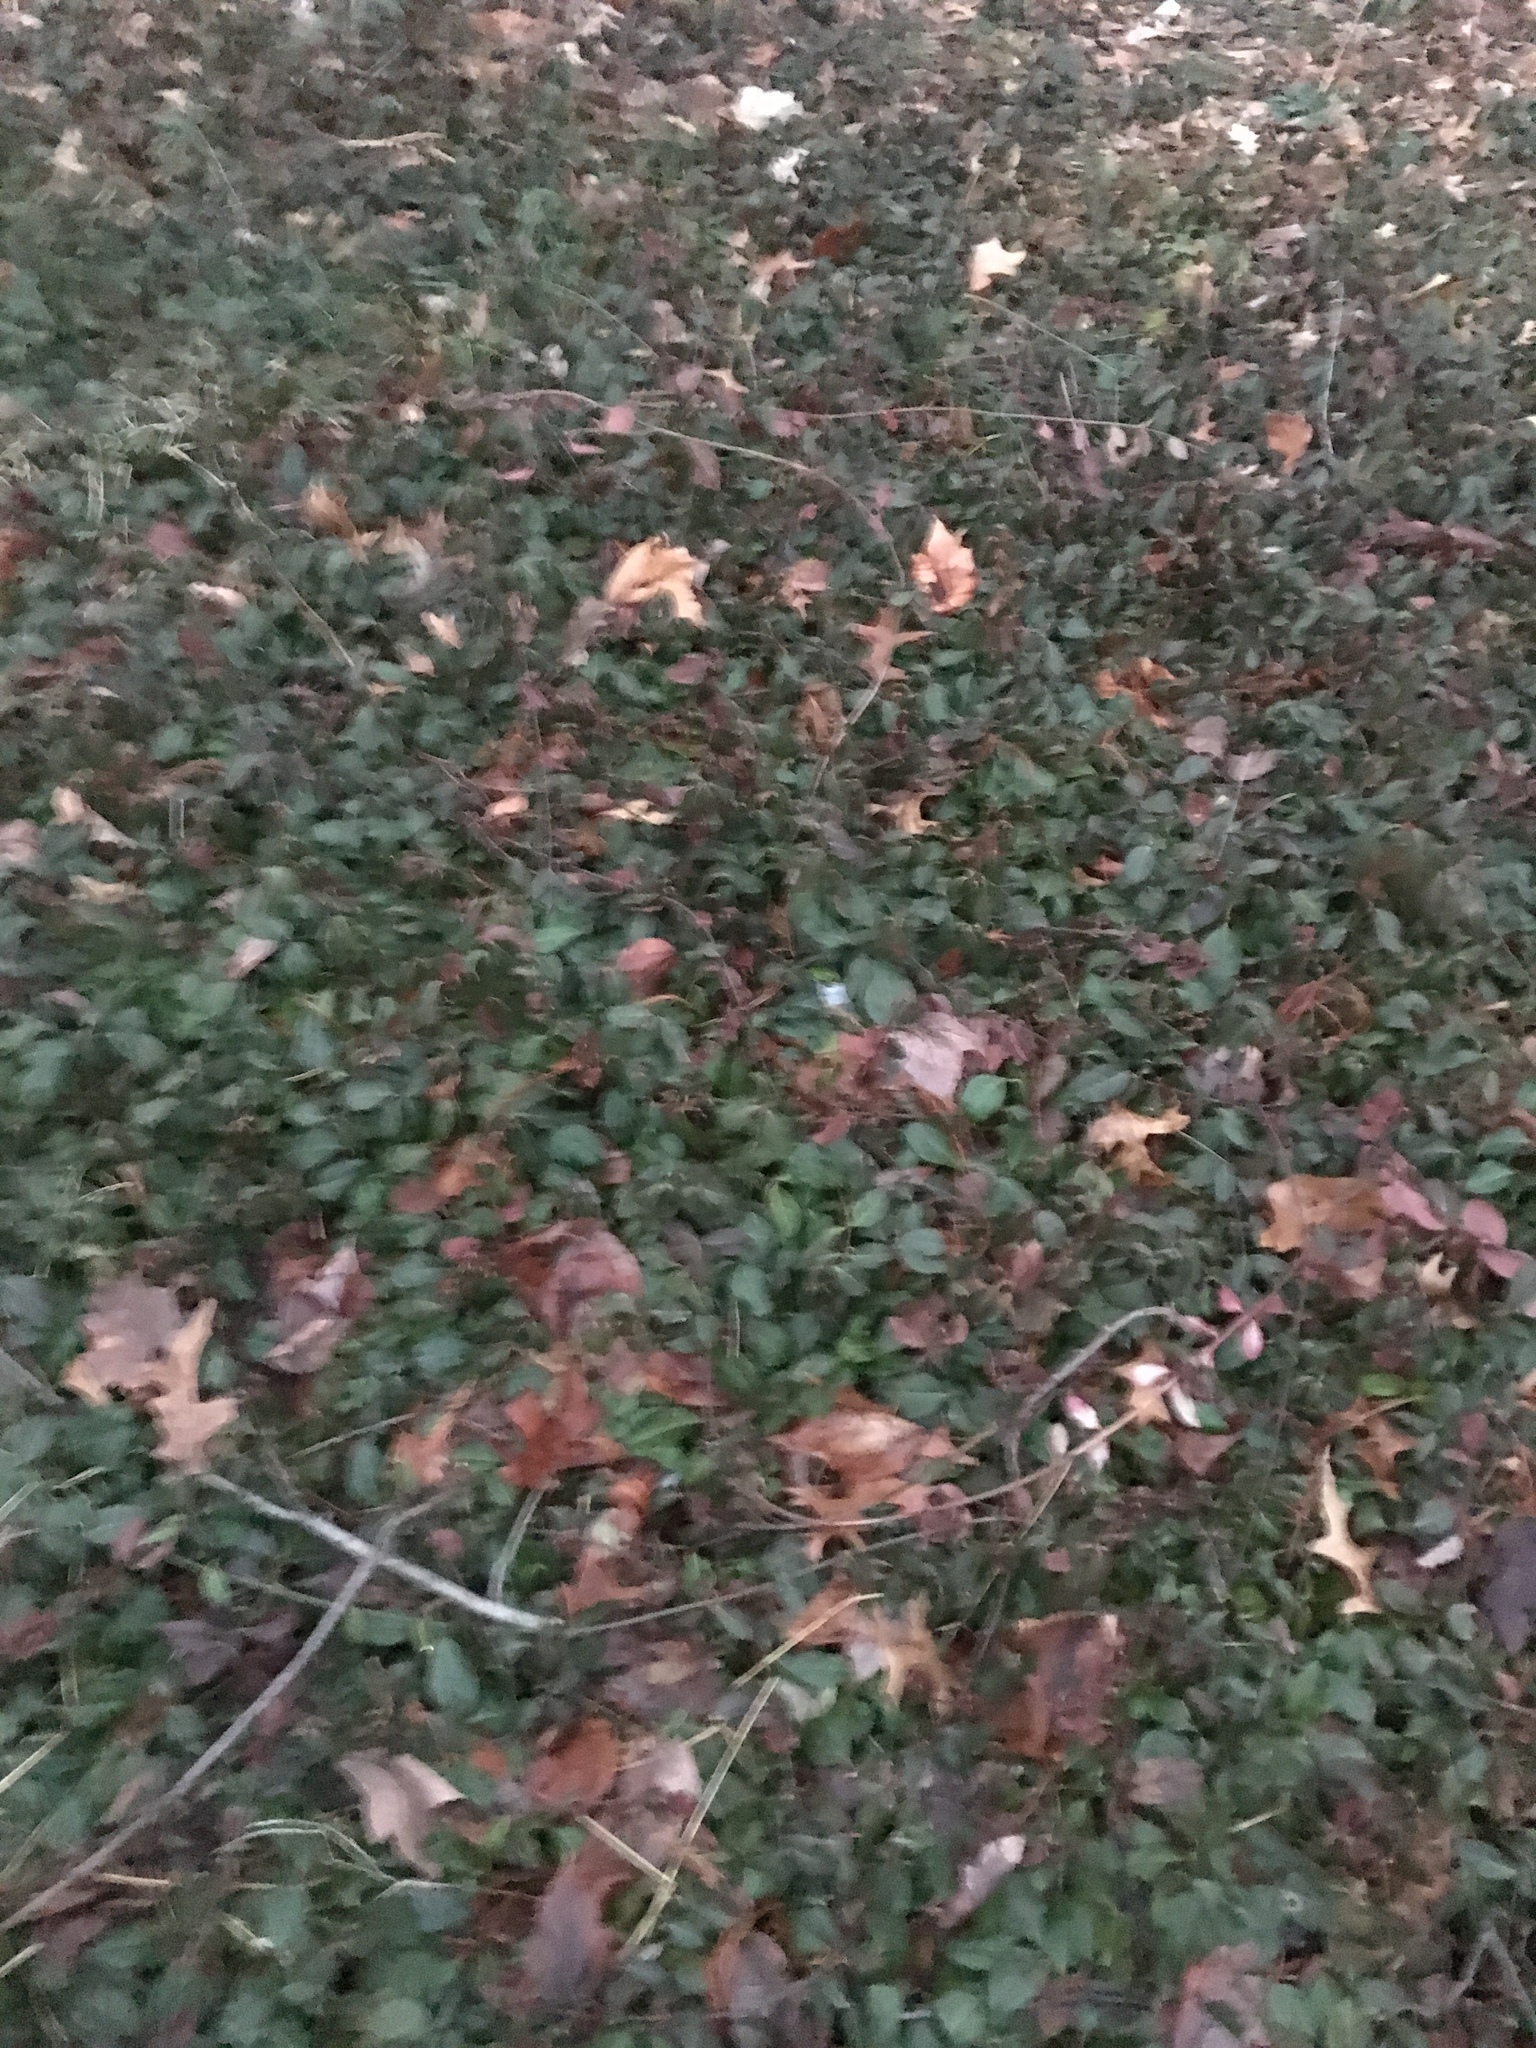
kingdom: Plantae
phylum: Tracheophyta
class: Magnoliopsida
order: Celastrales
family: Celastraceae
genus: Euonymus
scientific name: Euonymus fortunei
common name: Climbing euonymus
